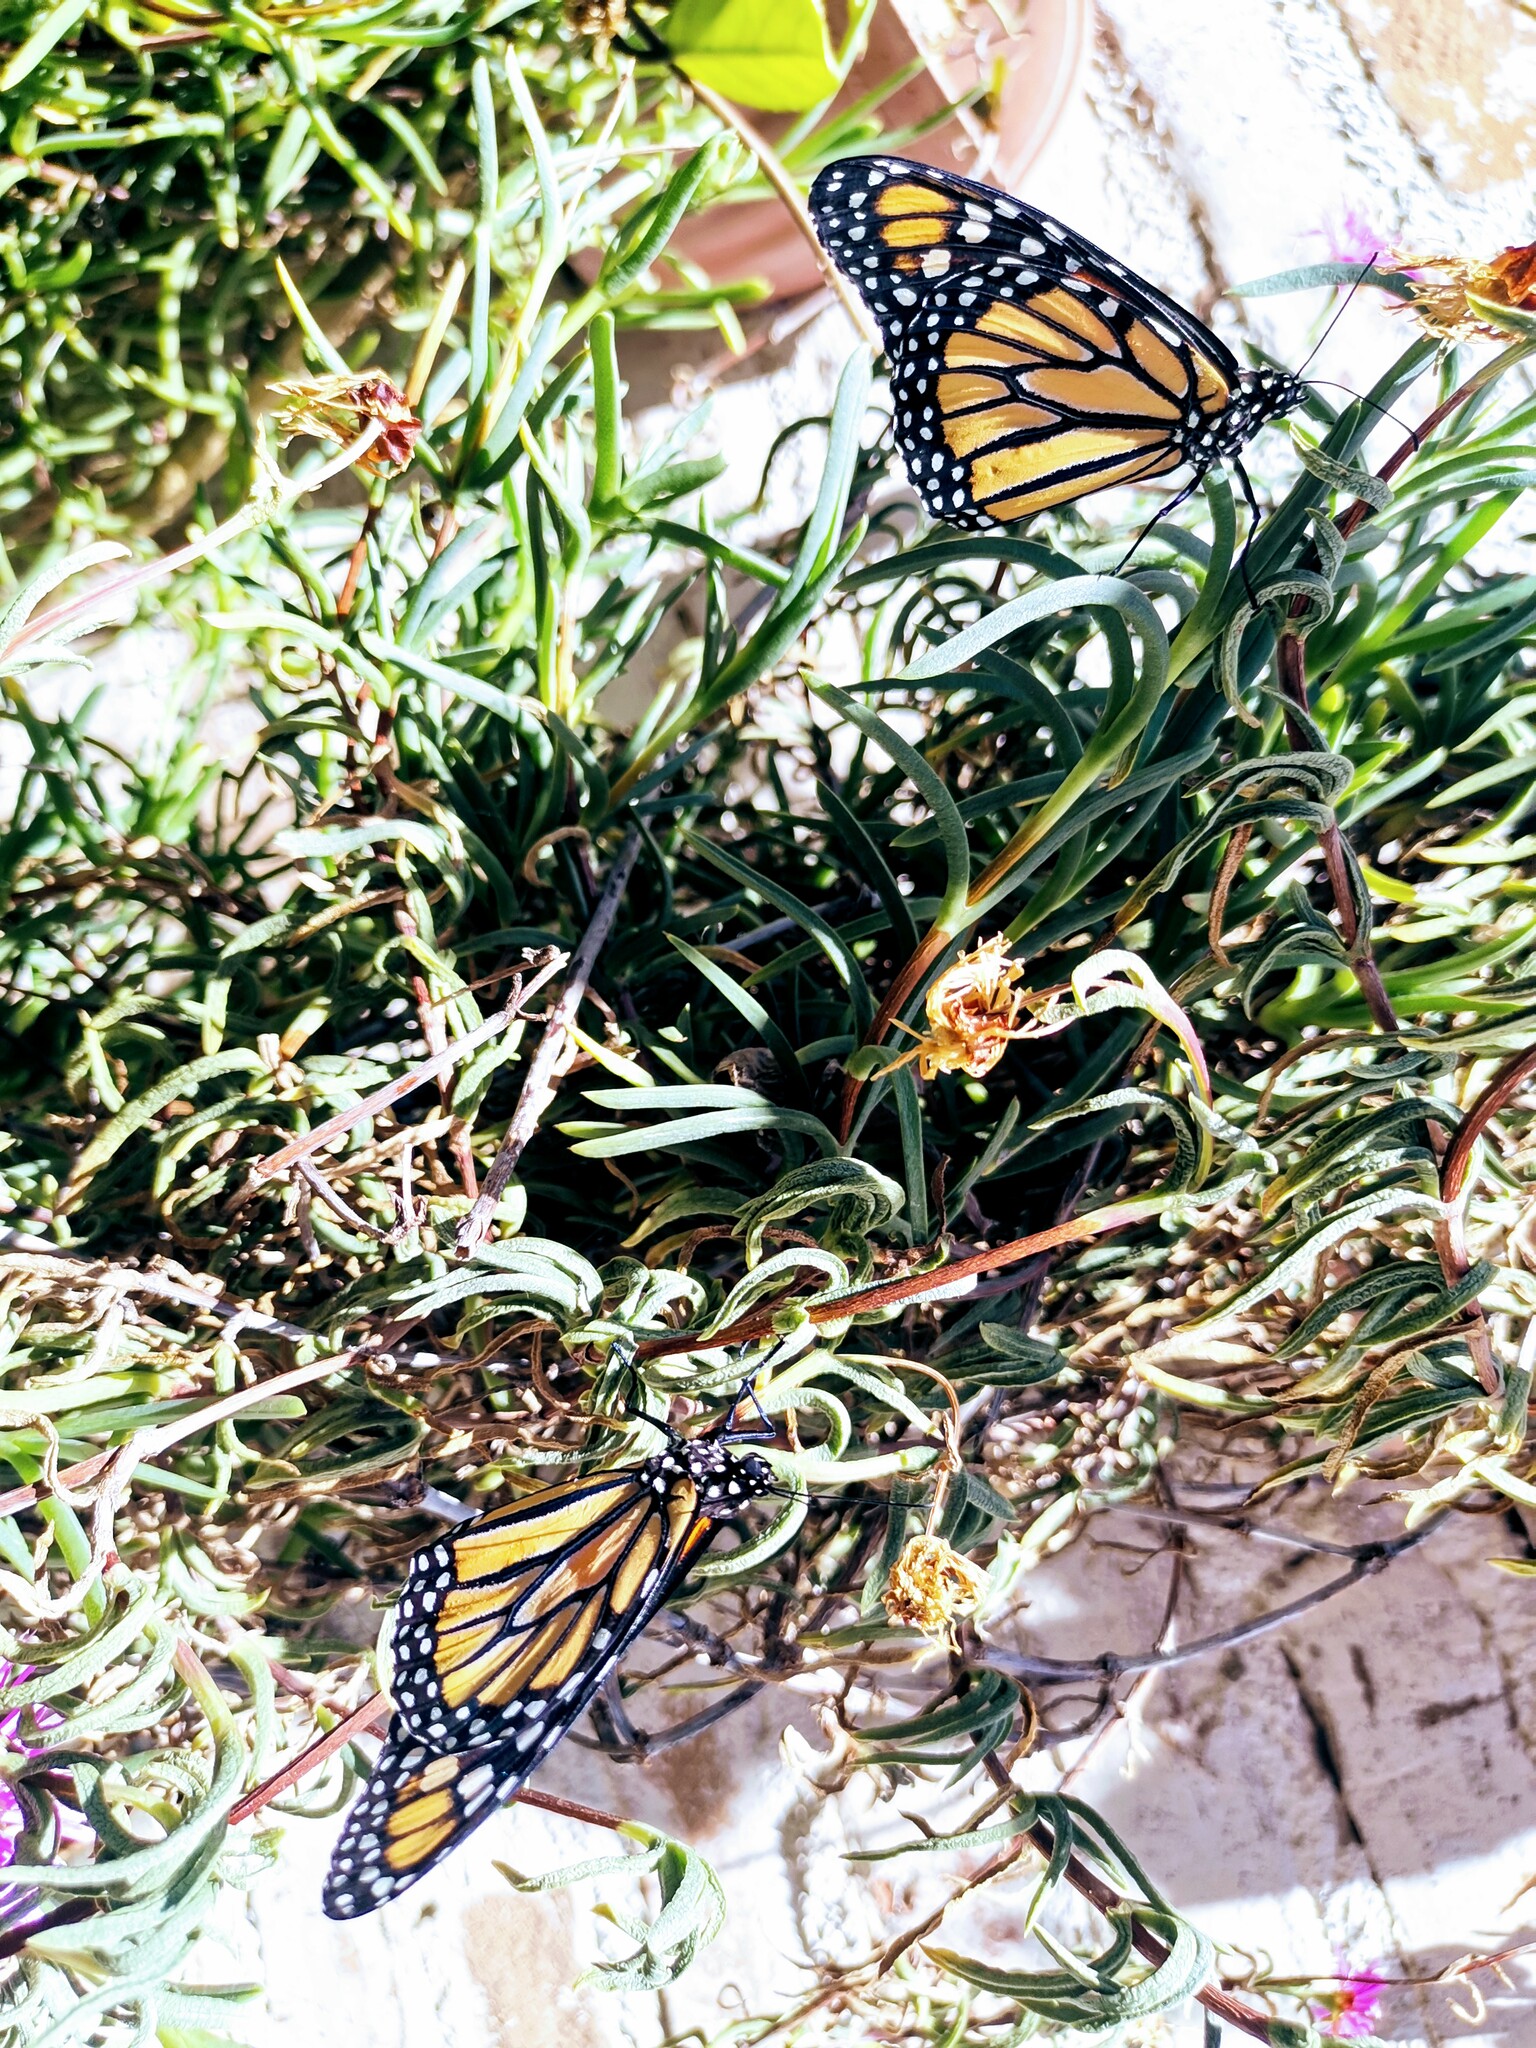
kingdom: Animalia
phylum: Arthropoda
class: Insecta
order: Lepidoptera
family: Nymphalidae
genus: Danaus
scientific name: Danaus plexippus
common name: Monarch
